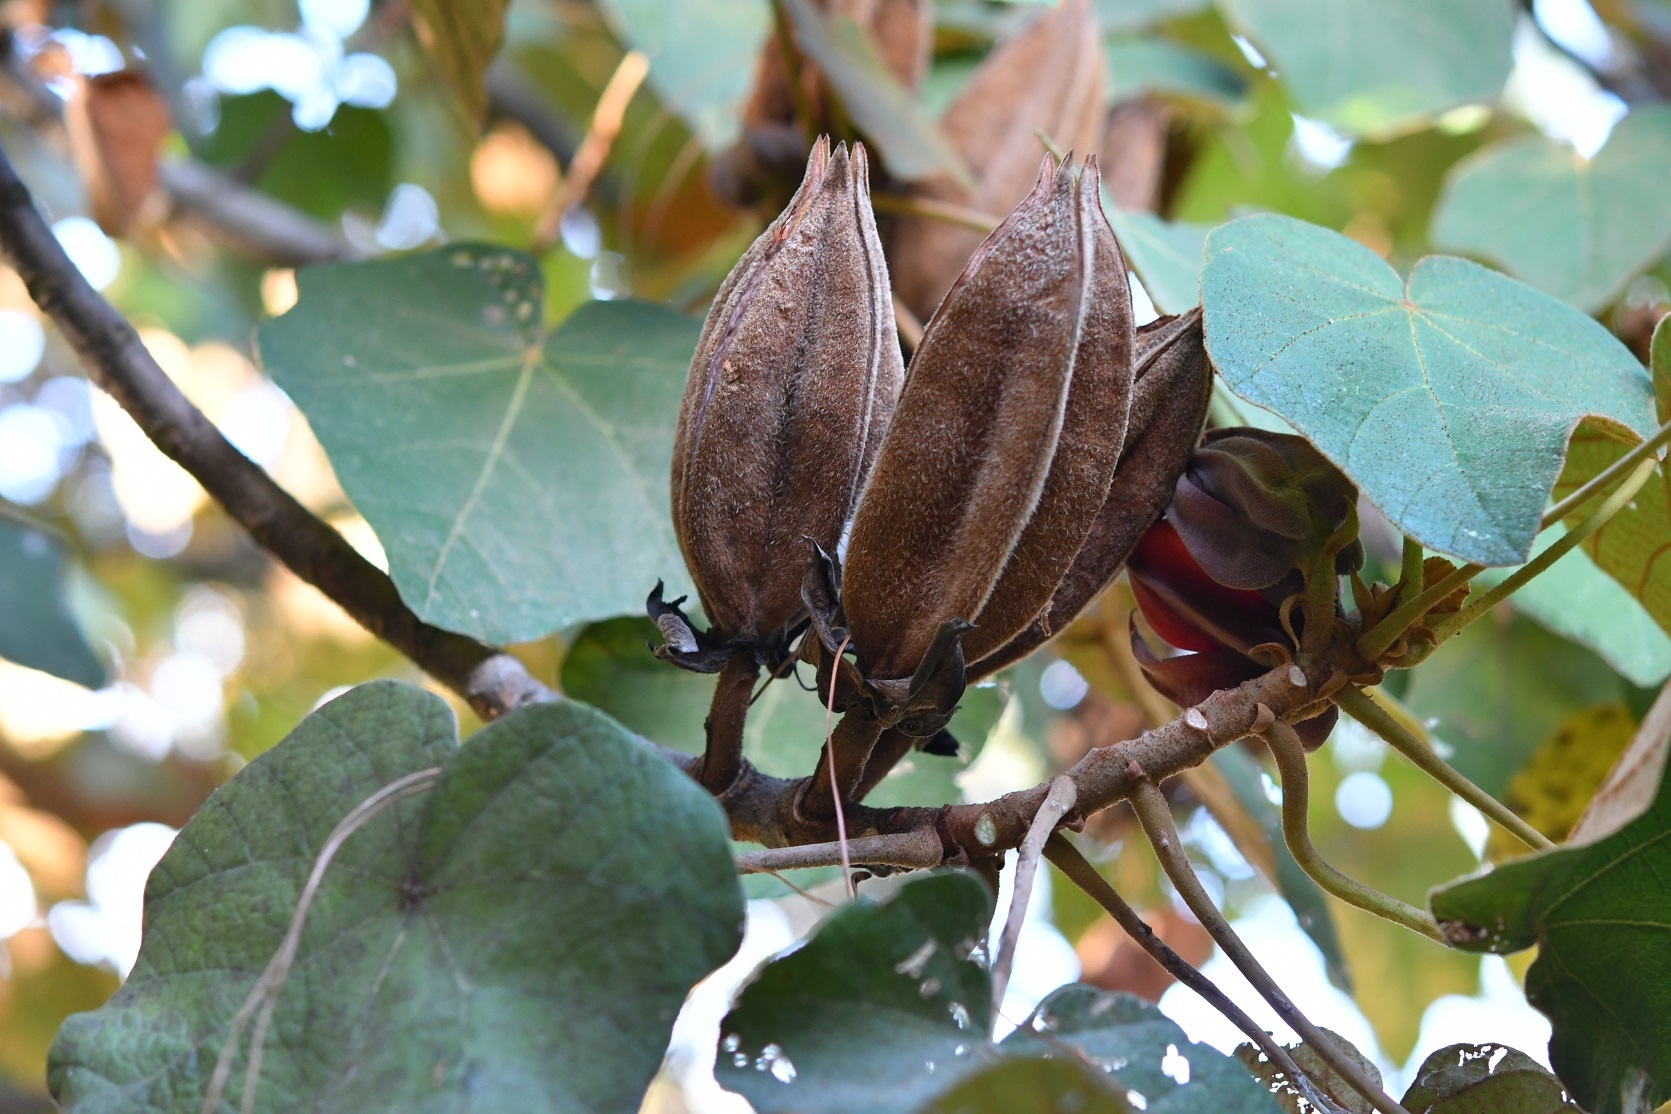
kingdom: Plantae
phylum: Tracheophyta
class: Magnoliopsida
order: Malvales
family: Malvaceae
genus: Chiranthodendron
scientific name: Chiranthodendron pentadactylon
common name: Mexican-hat-plant
